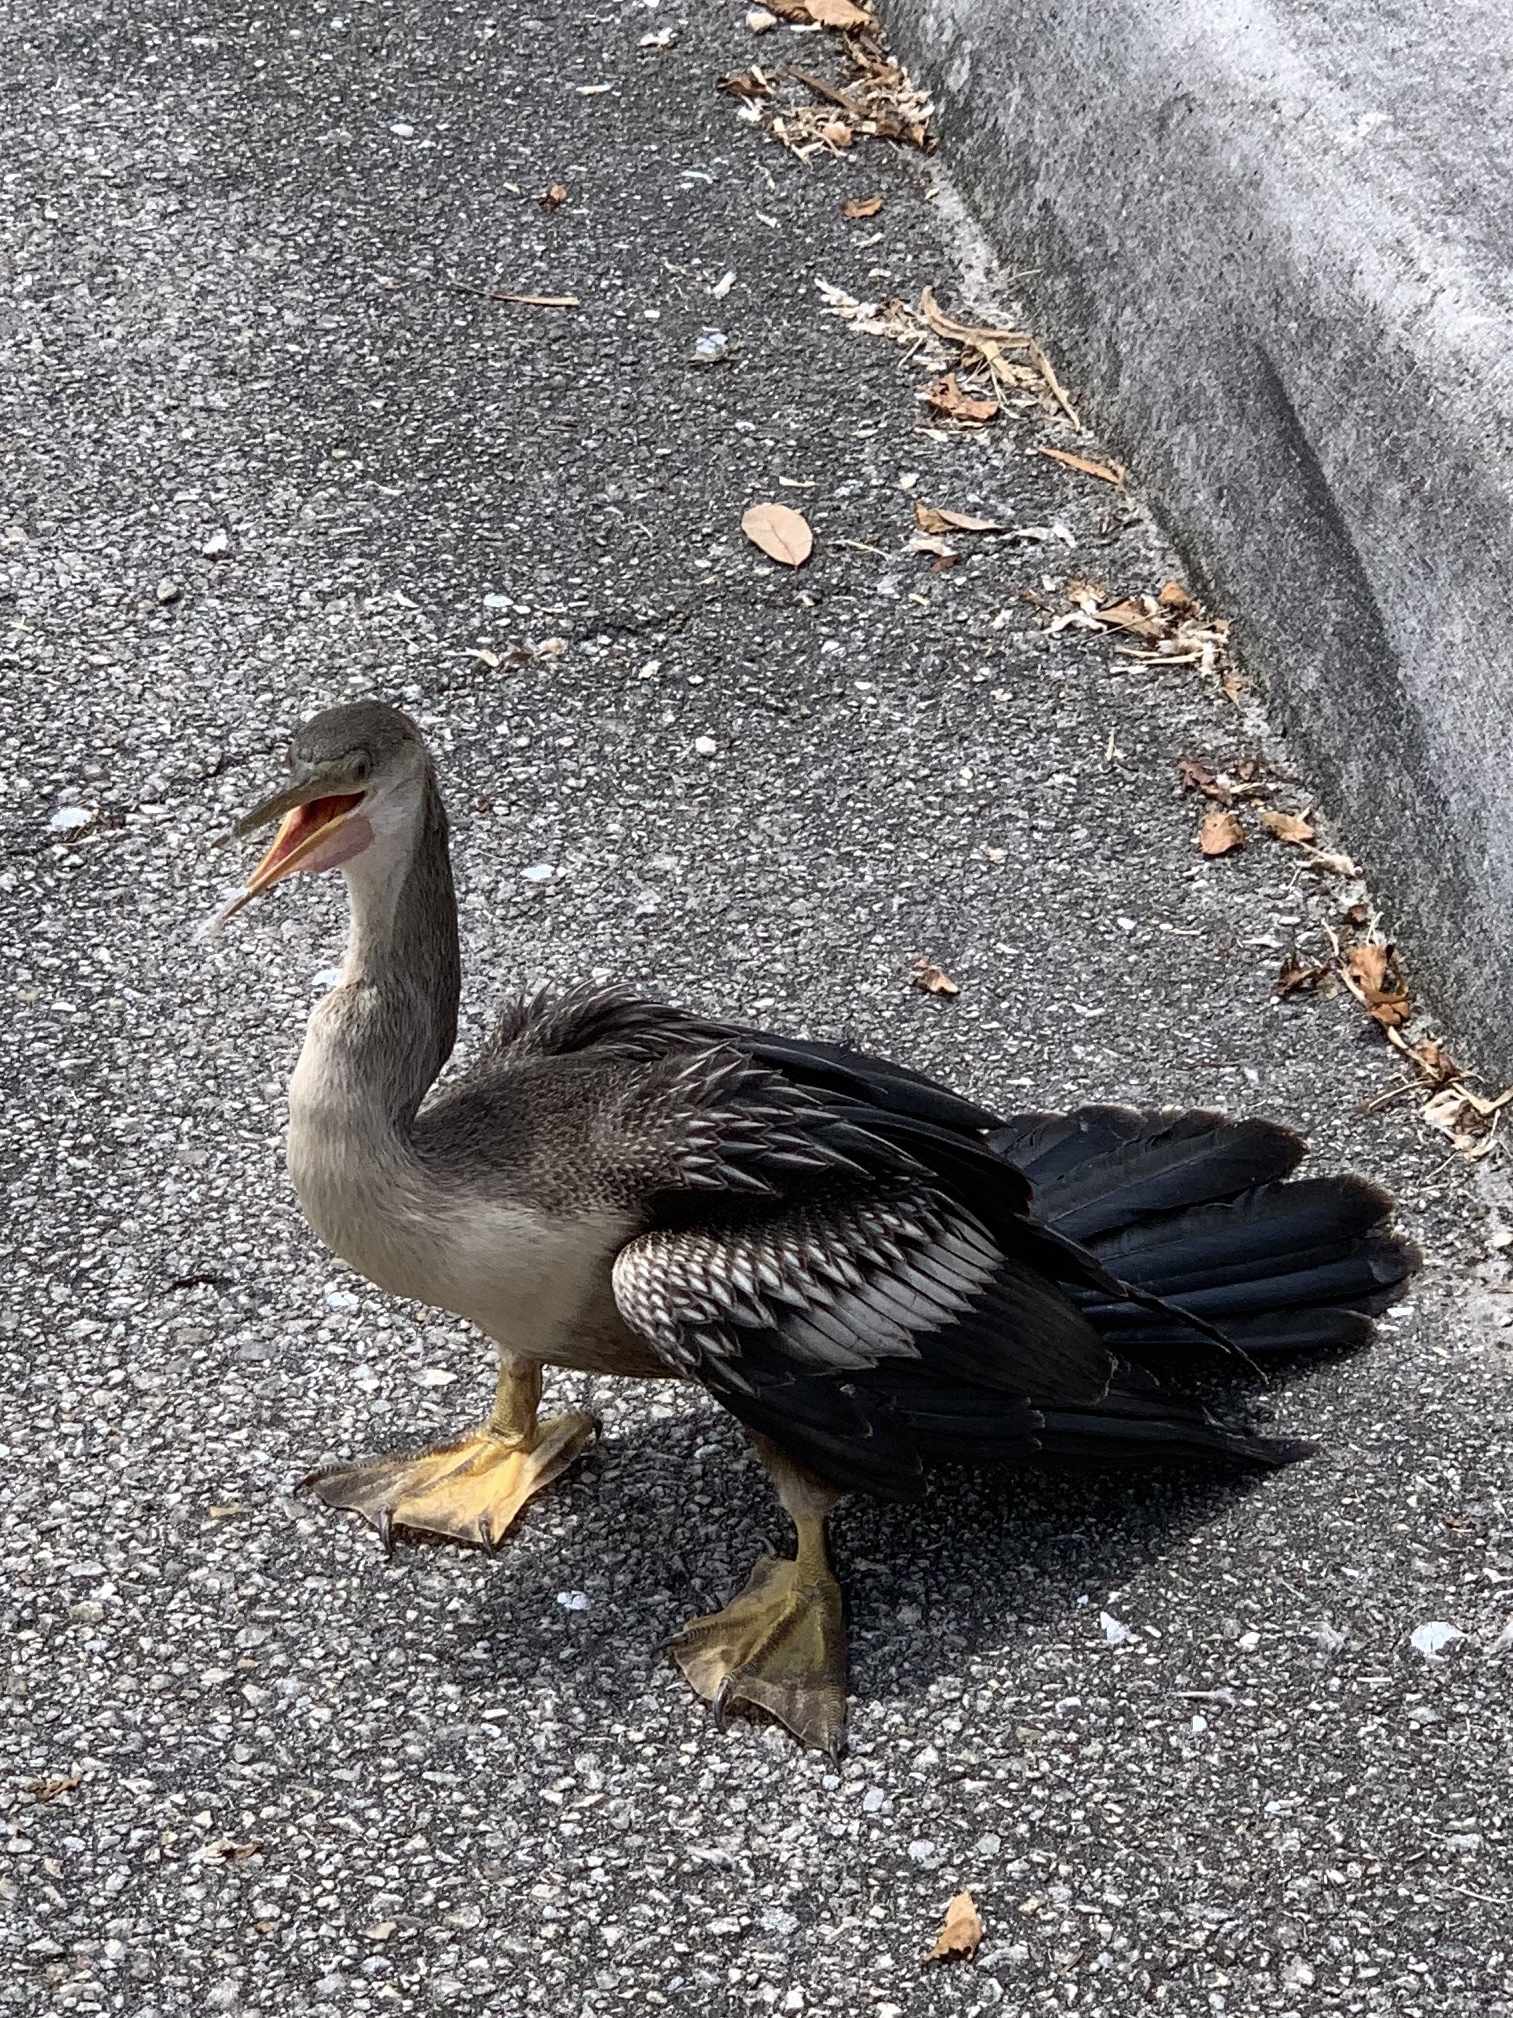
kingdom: Animalia
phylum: Chordata
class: Aves
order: Suliformes
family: Anhingidae
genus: Anhinga
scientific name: Anhinga anhinga
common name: Anhinga
